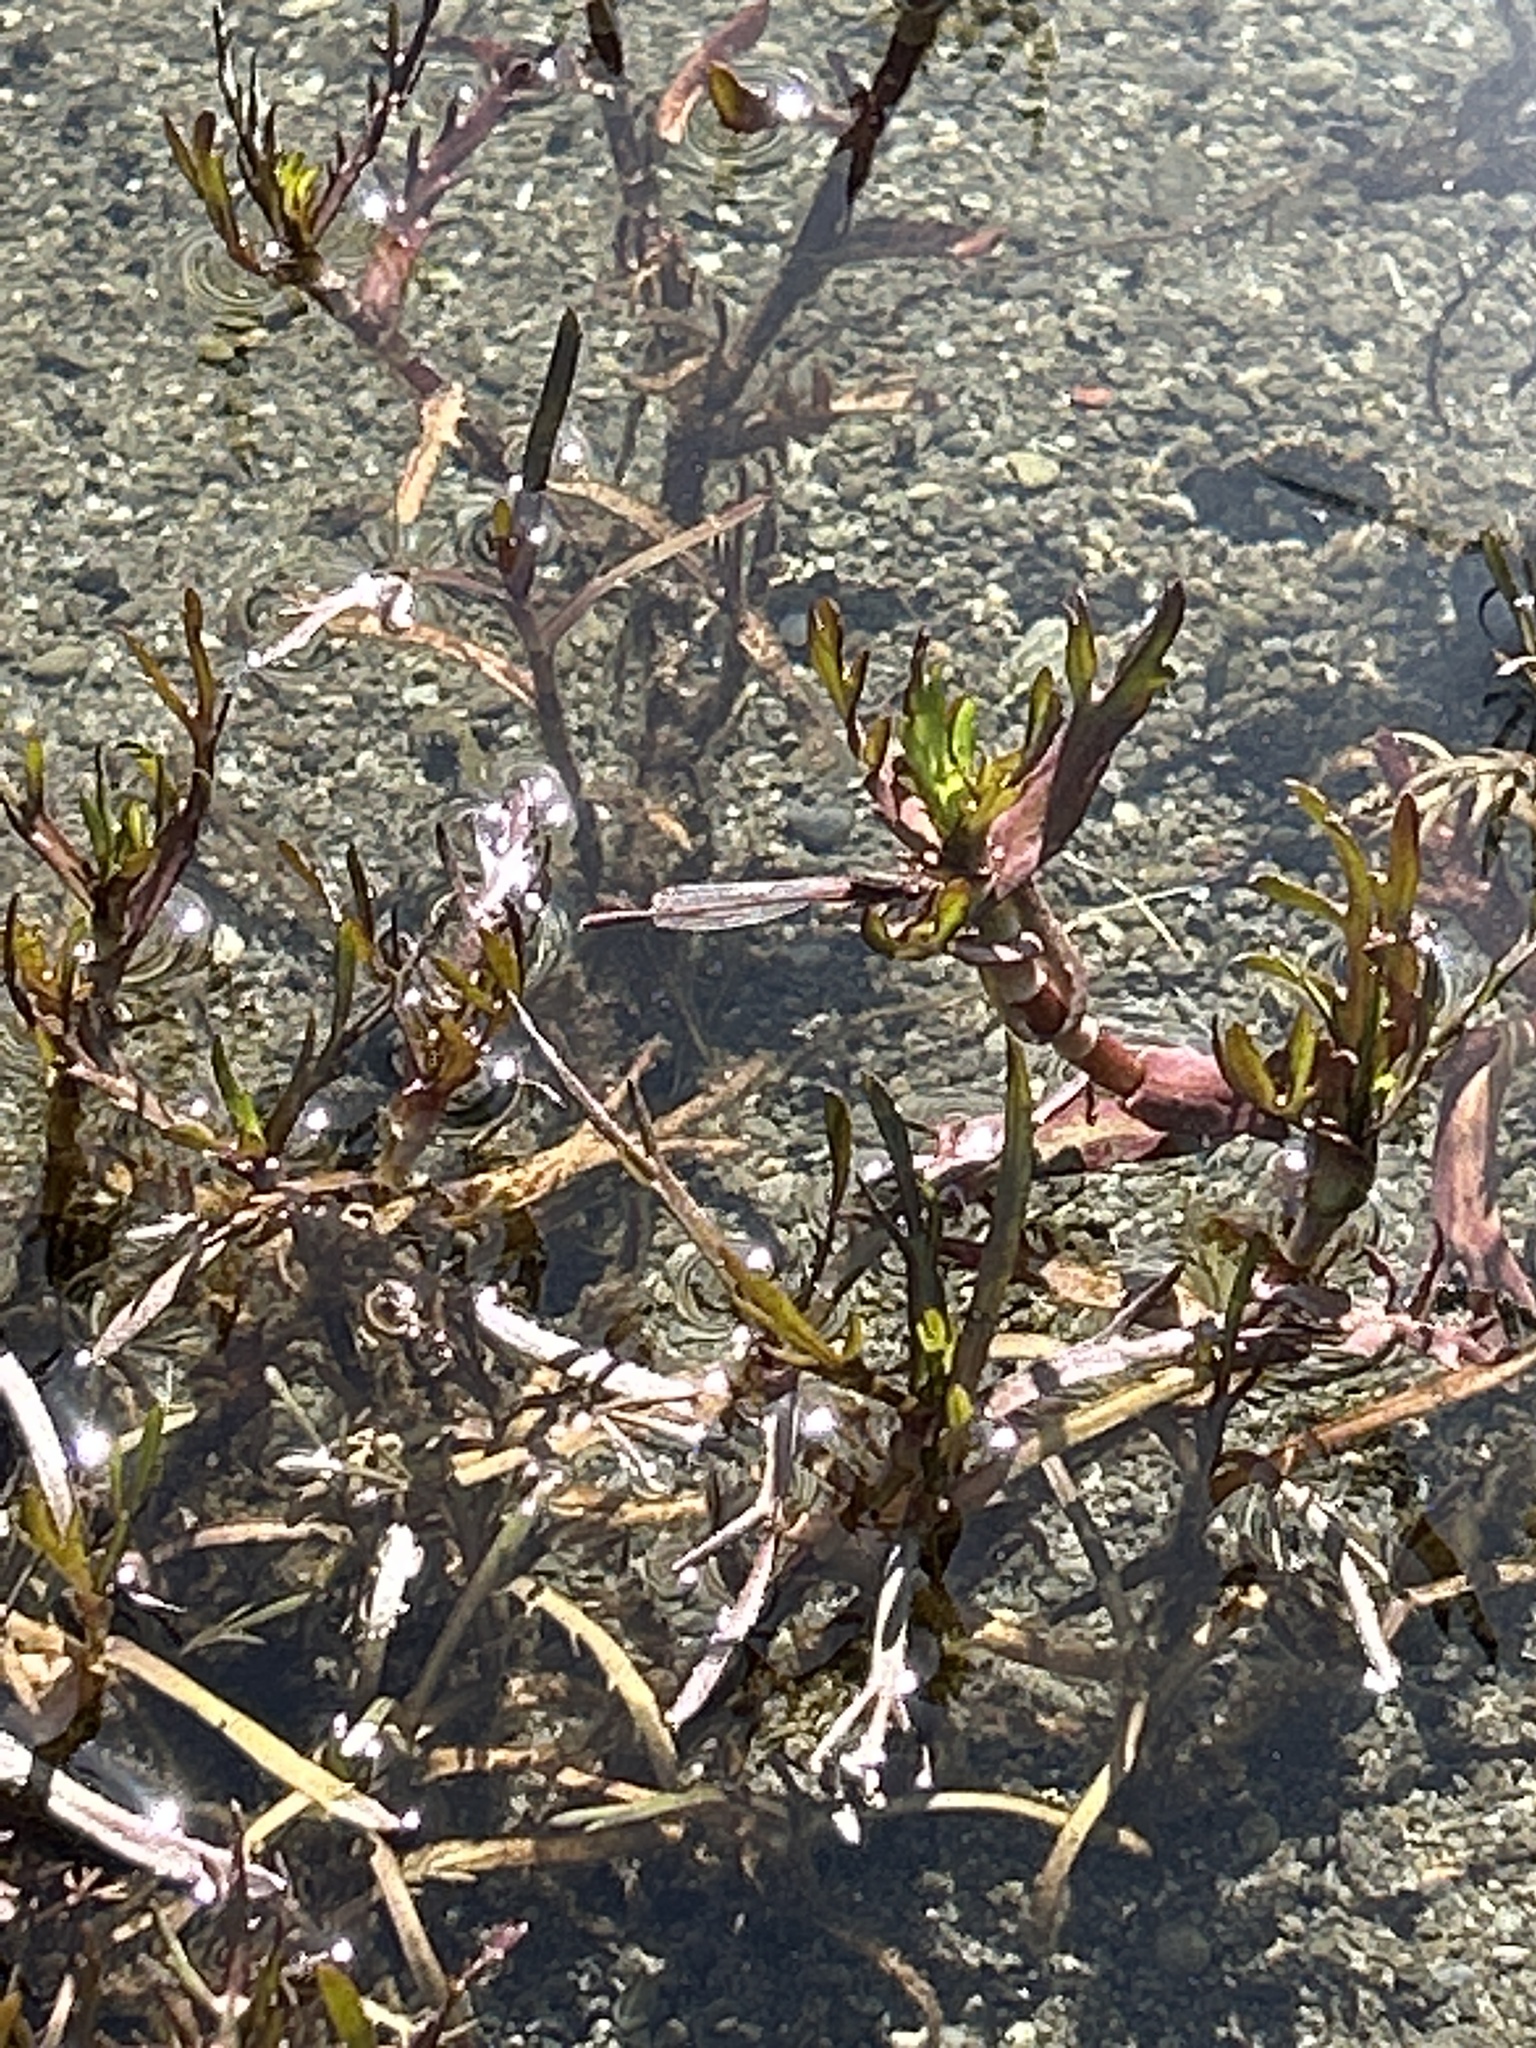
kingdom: Animalia
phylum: Arthropoda
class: Insecta
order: Odonata
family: Coenagrionidae
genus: Xanthocnemis
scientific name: Xanthocnemis zealandica
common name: Common redcoat damselfly
